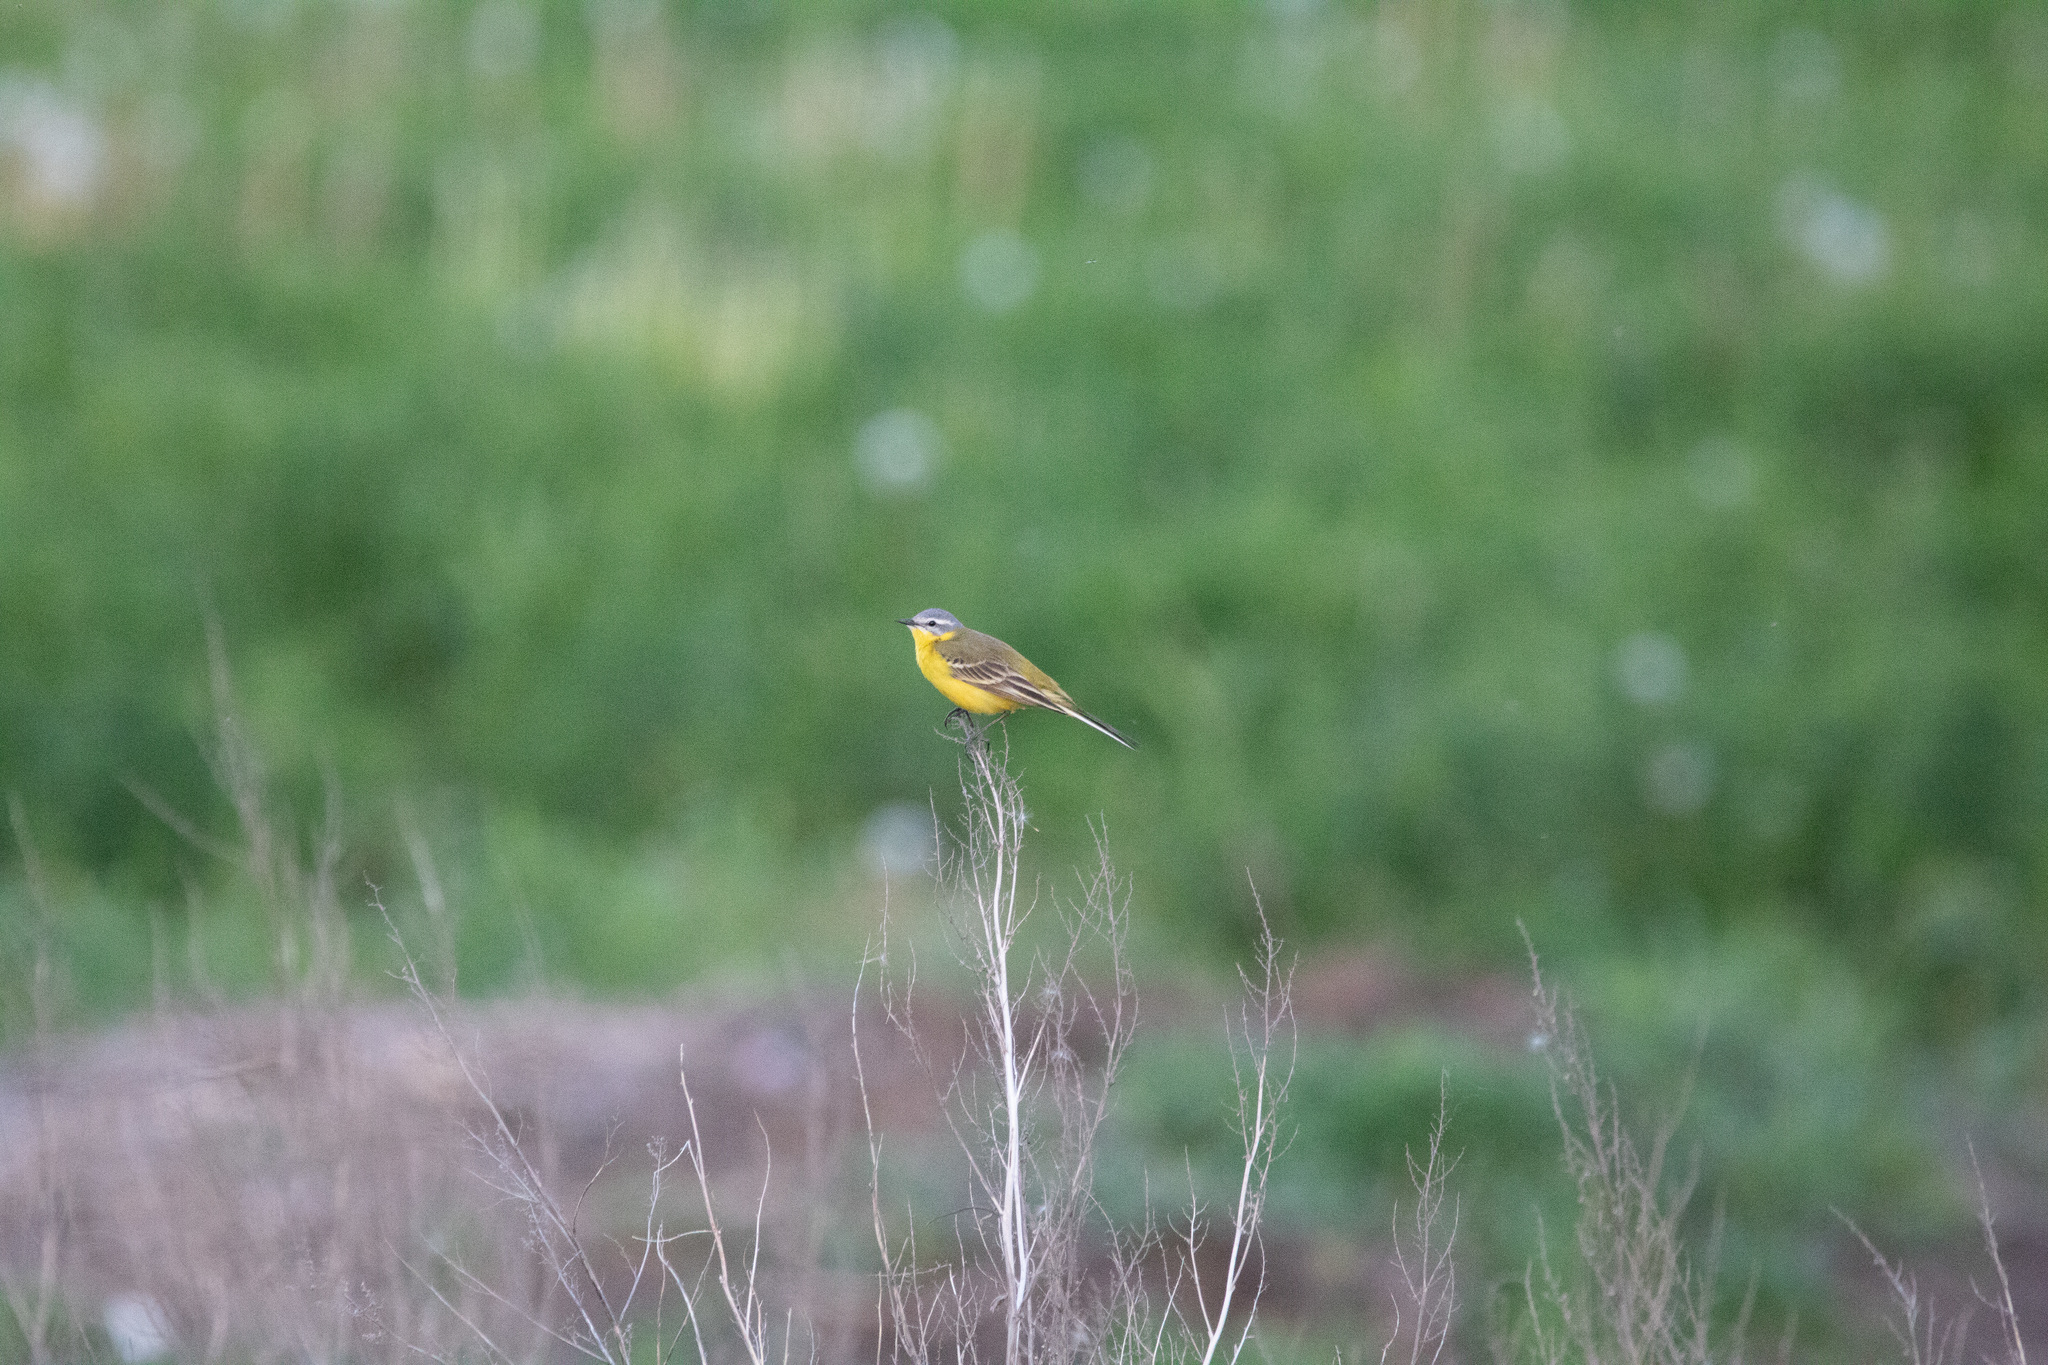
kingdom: Animalia
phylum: Chordata
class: Aves
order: Passeriformes
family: Motacillidae
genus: Motacilla
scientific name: Motacilla flava
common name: Western yellow wagtail
